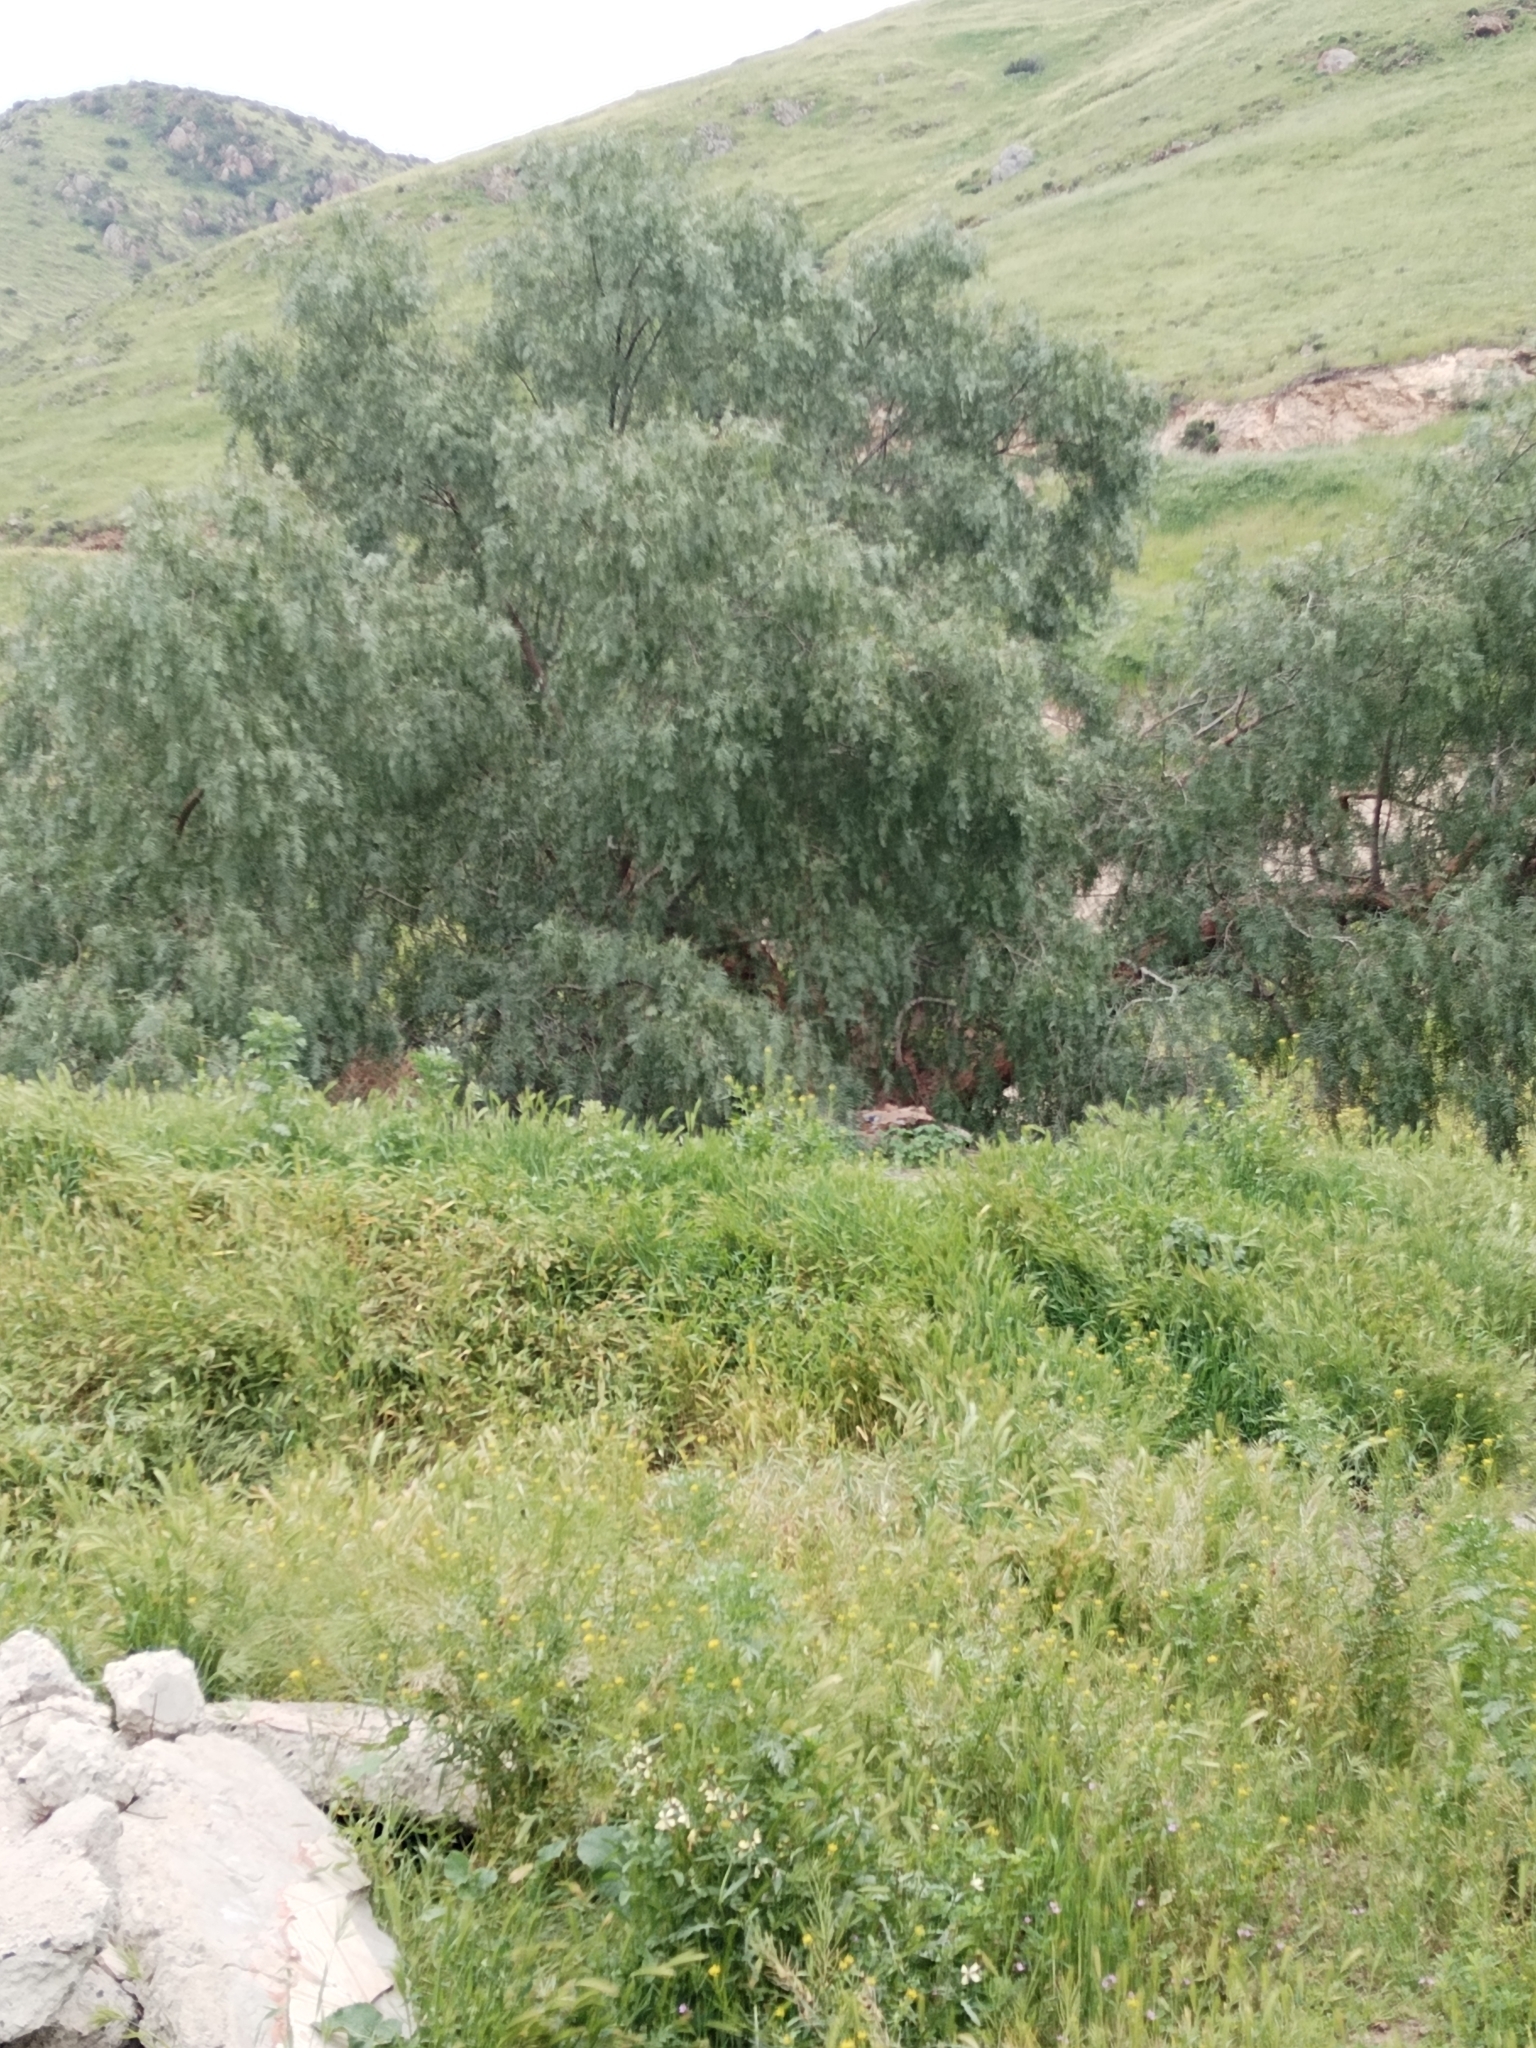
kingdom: Plantae
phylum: Tracheophyta
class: Magnoliopsida
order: Sapindales
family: Anacardiaceae
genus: Schinus
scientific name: Schinus molle
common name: Peruvian peppertree
